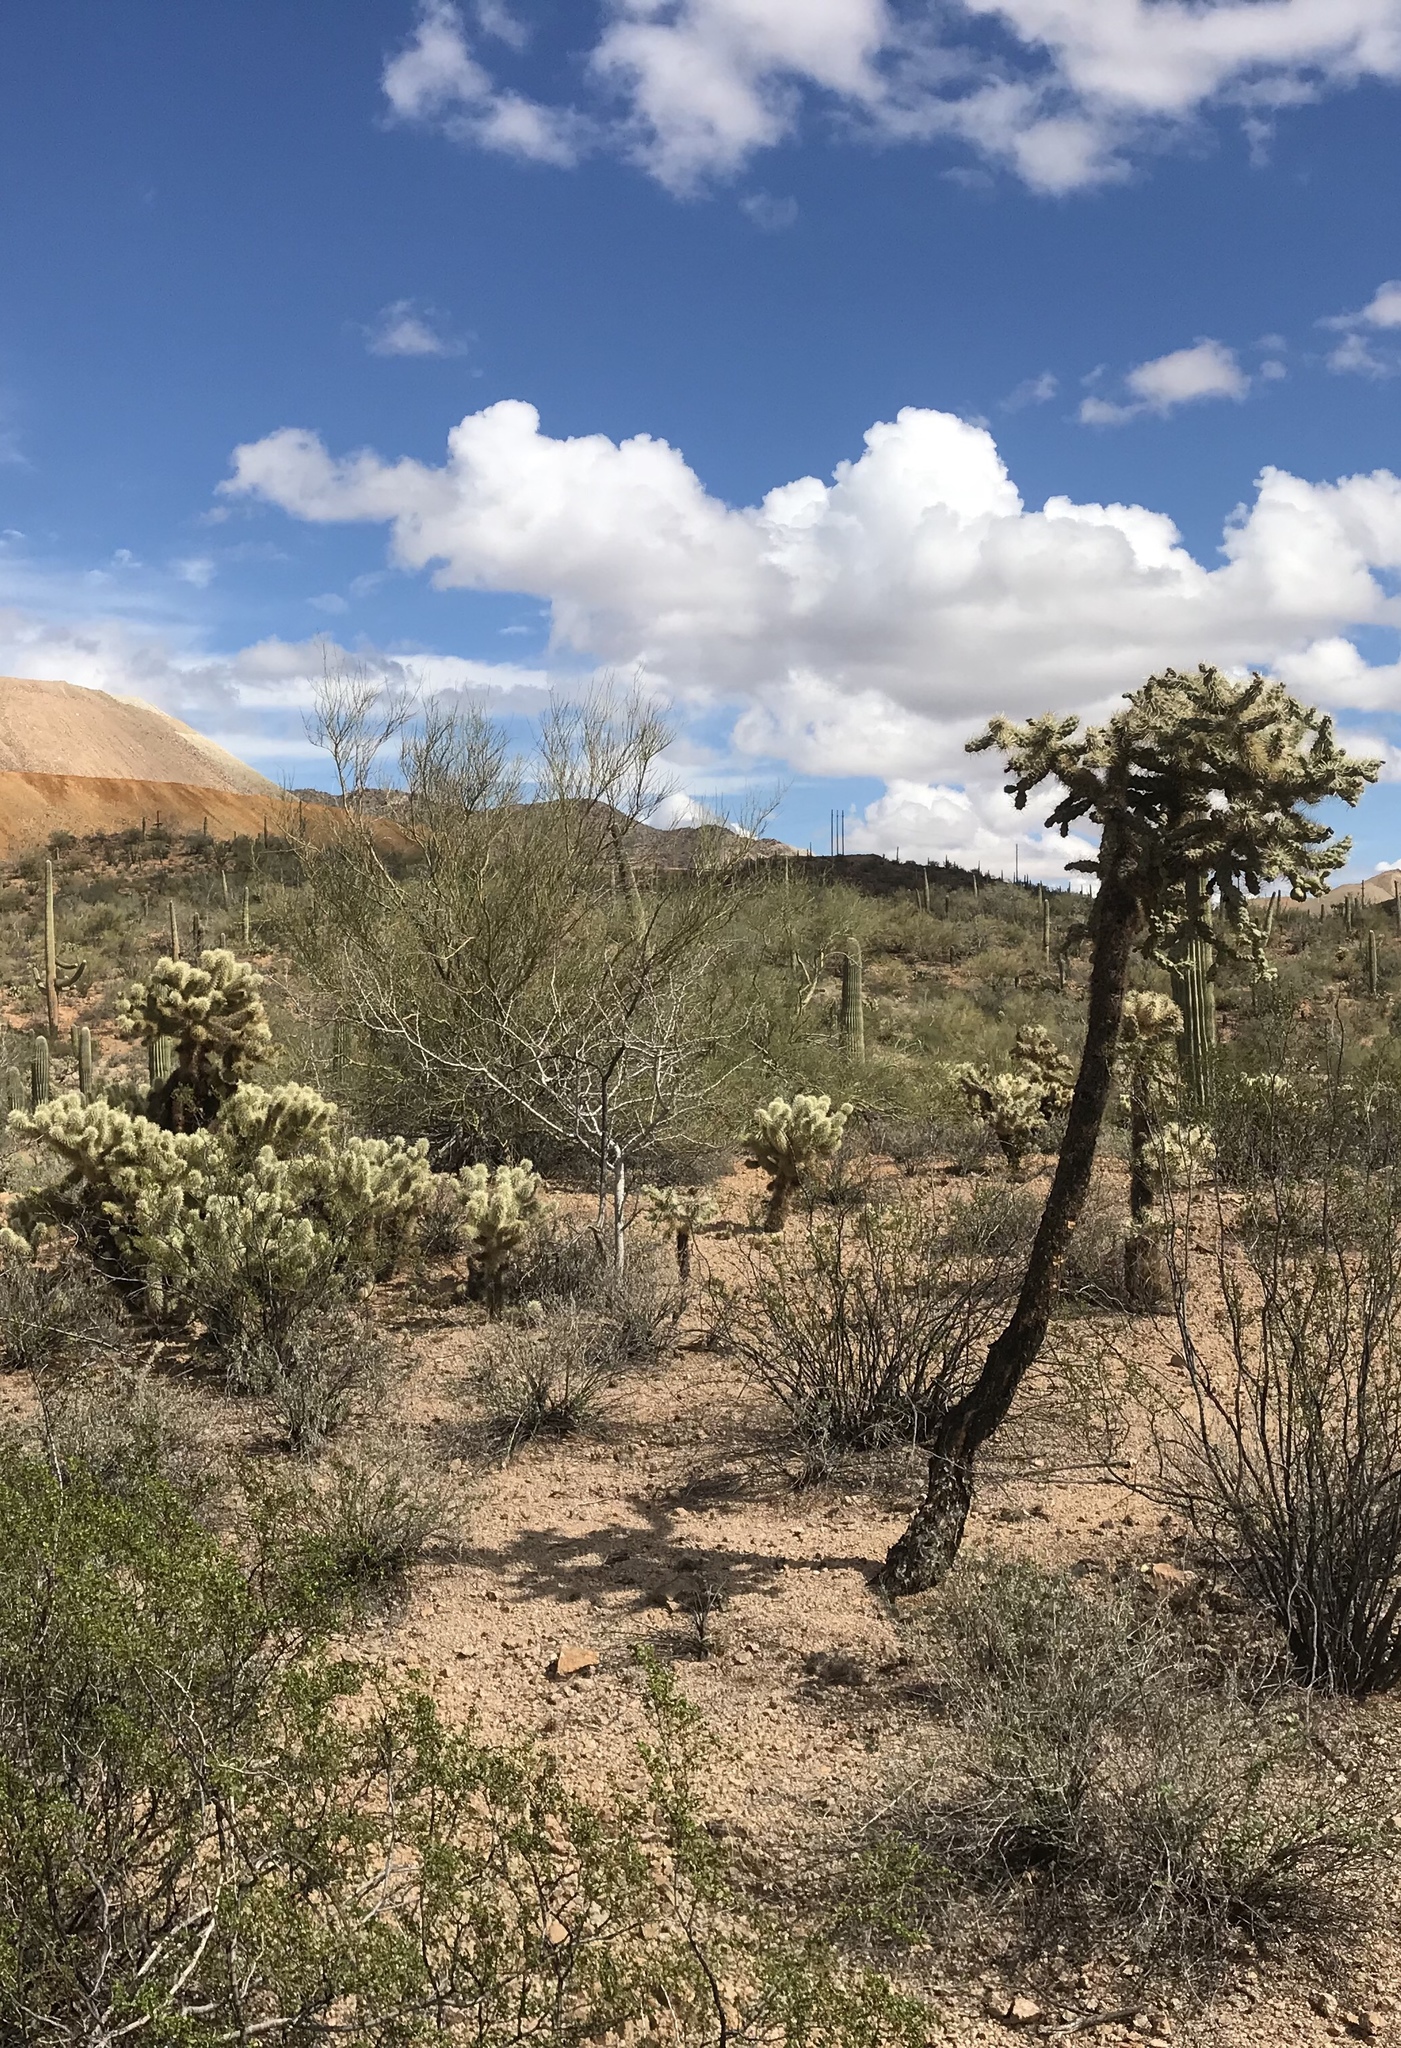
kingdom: Plantae
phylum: Tracheophyta
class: Magnoliopsida
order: Caryophyllales
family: Cactaceae
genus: Cylindropuntia
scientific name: Cylindropuntia fulgida
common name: Jumping cholla
